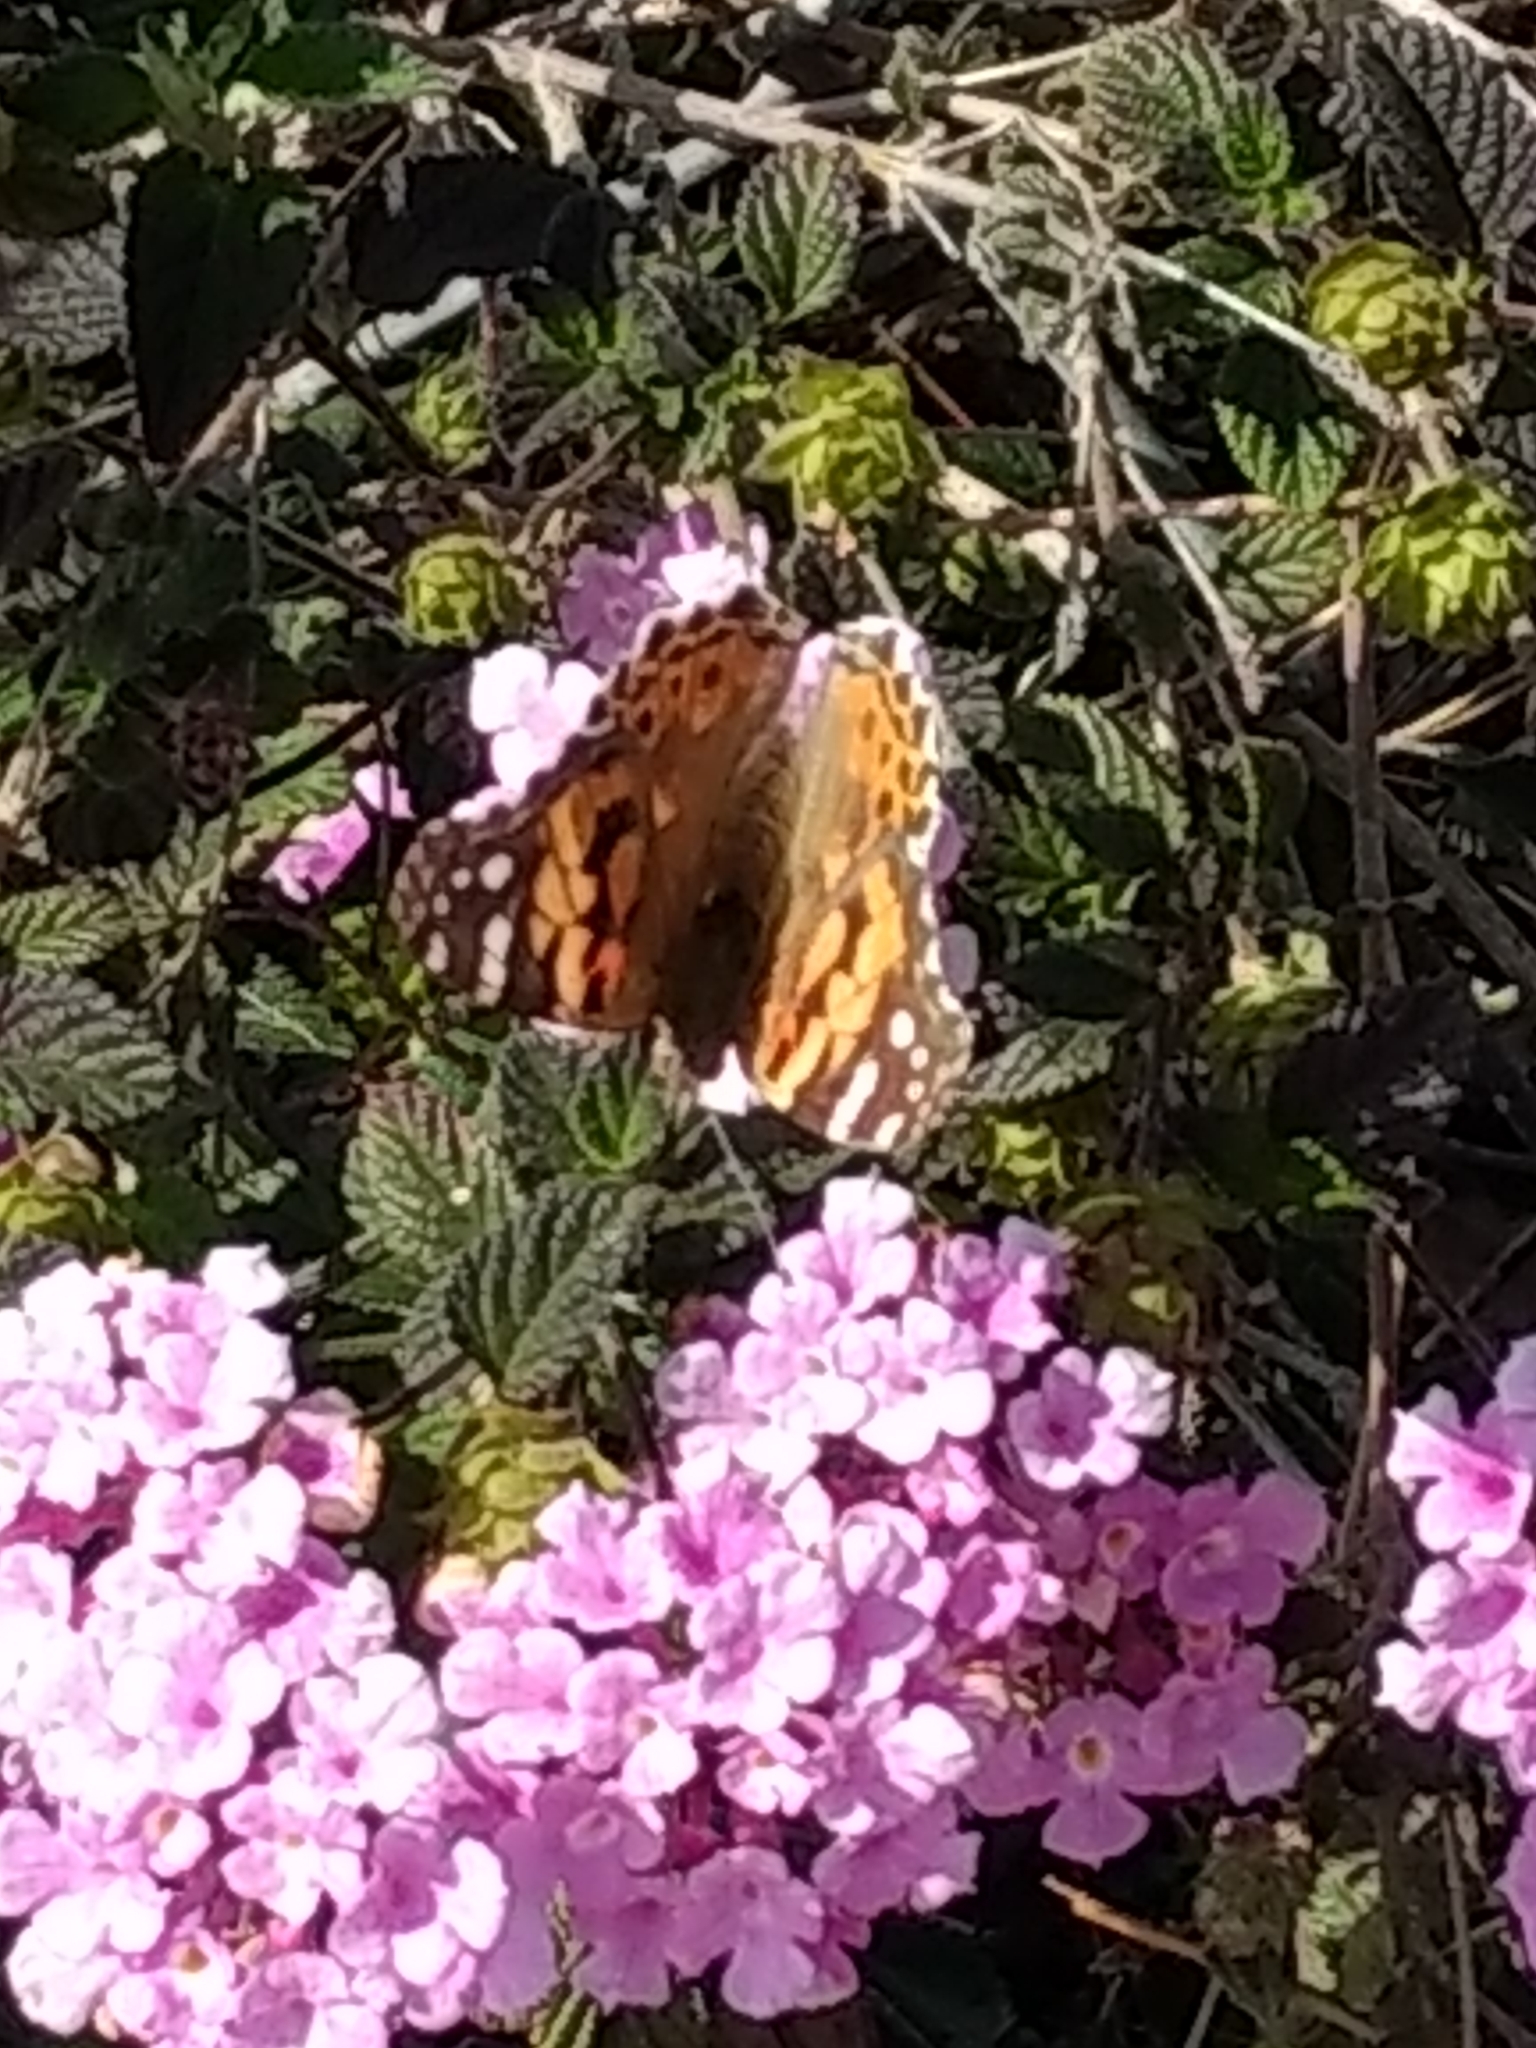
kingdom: Animalia
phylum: Arthropoda
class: Insecta
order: Lepidoptera
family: Nymphalidae
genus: Vanessa
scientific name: Vanessa cardui
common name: Painted lady
